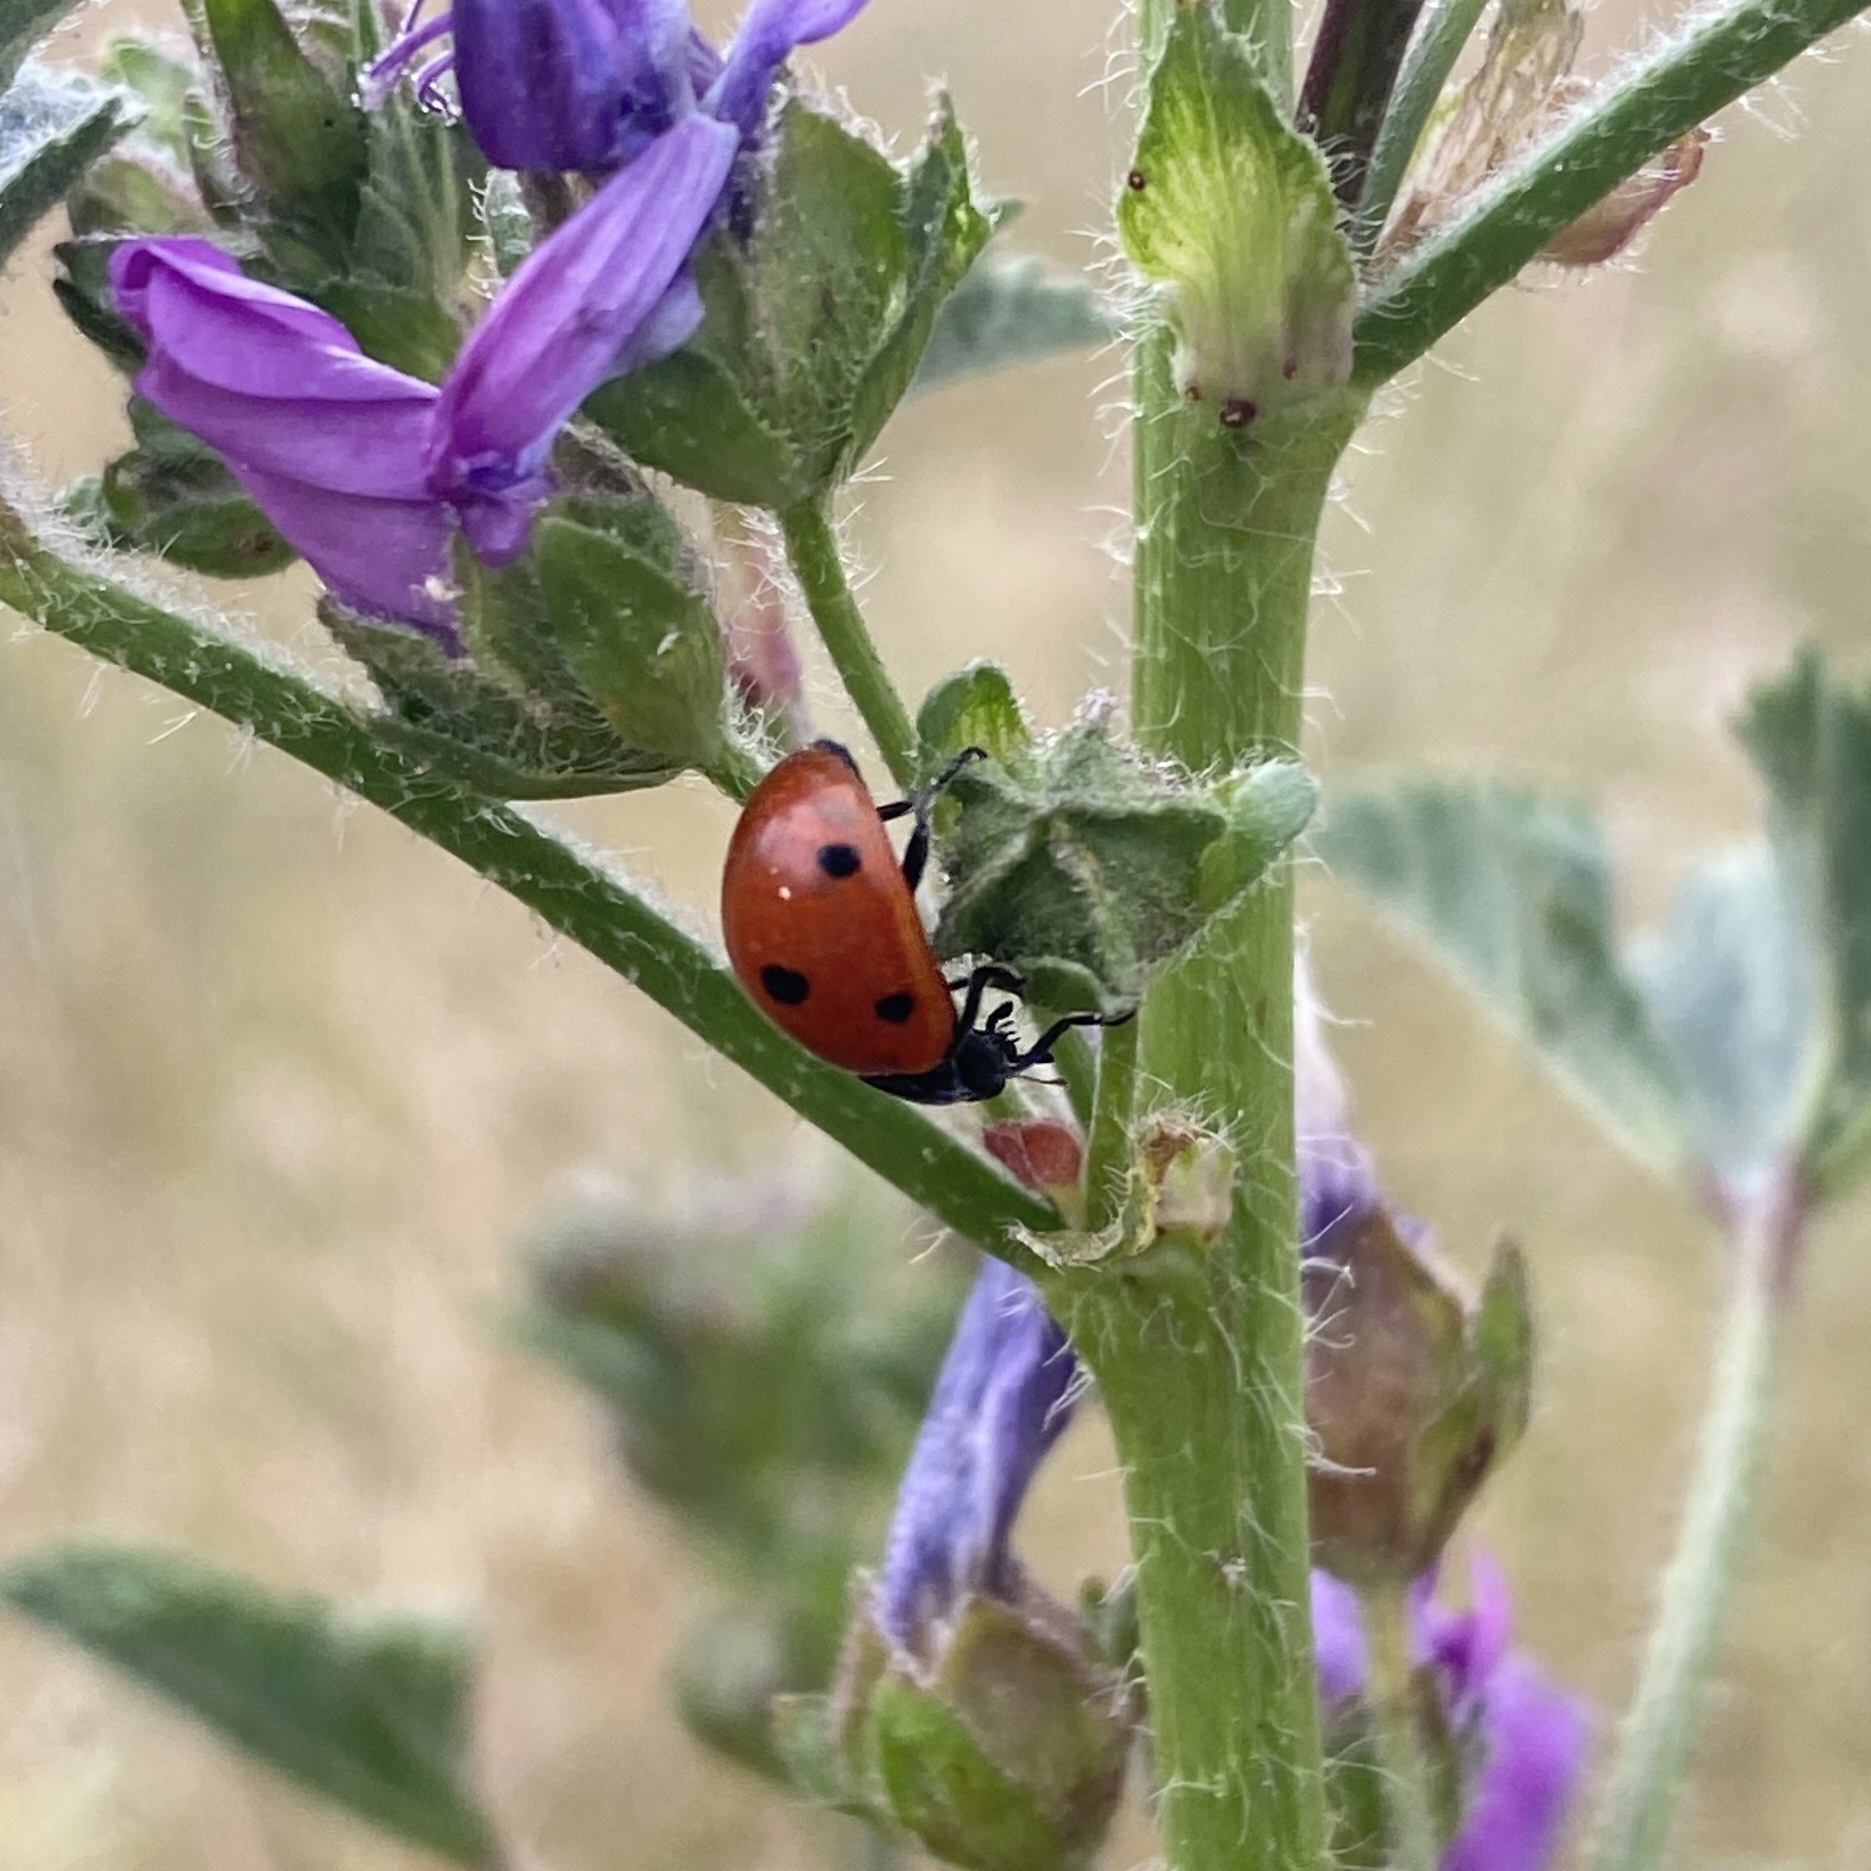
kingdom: Animalia
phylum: Arthropoda
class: Insecta
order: Coleoptera
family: Coccinellidae
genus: Coccinella
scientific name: Coccinella septempunctata
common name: Sevenspotted lady beetle
